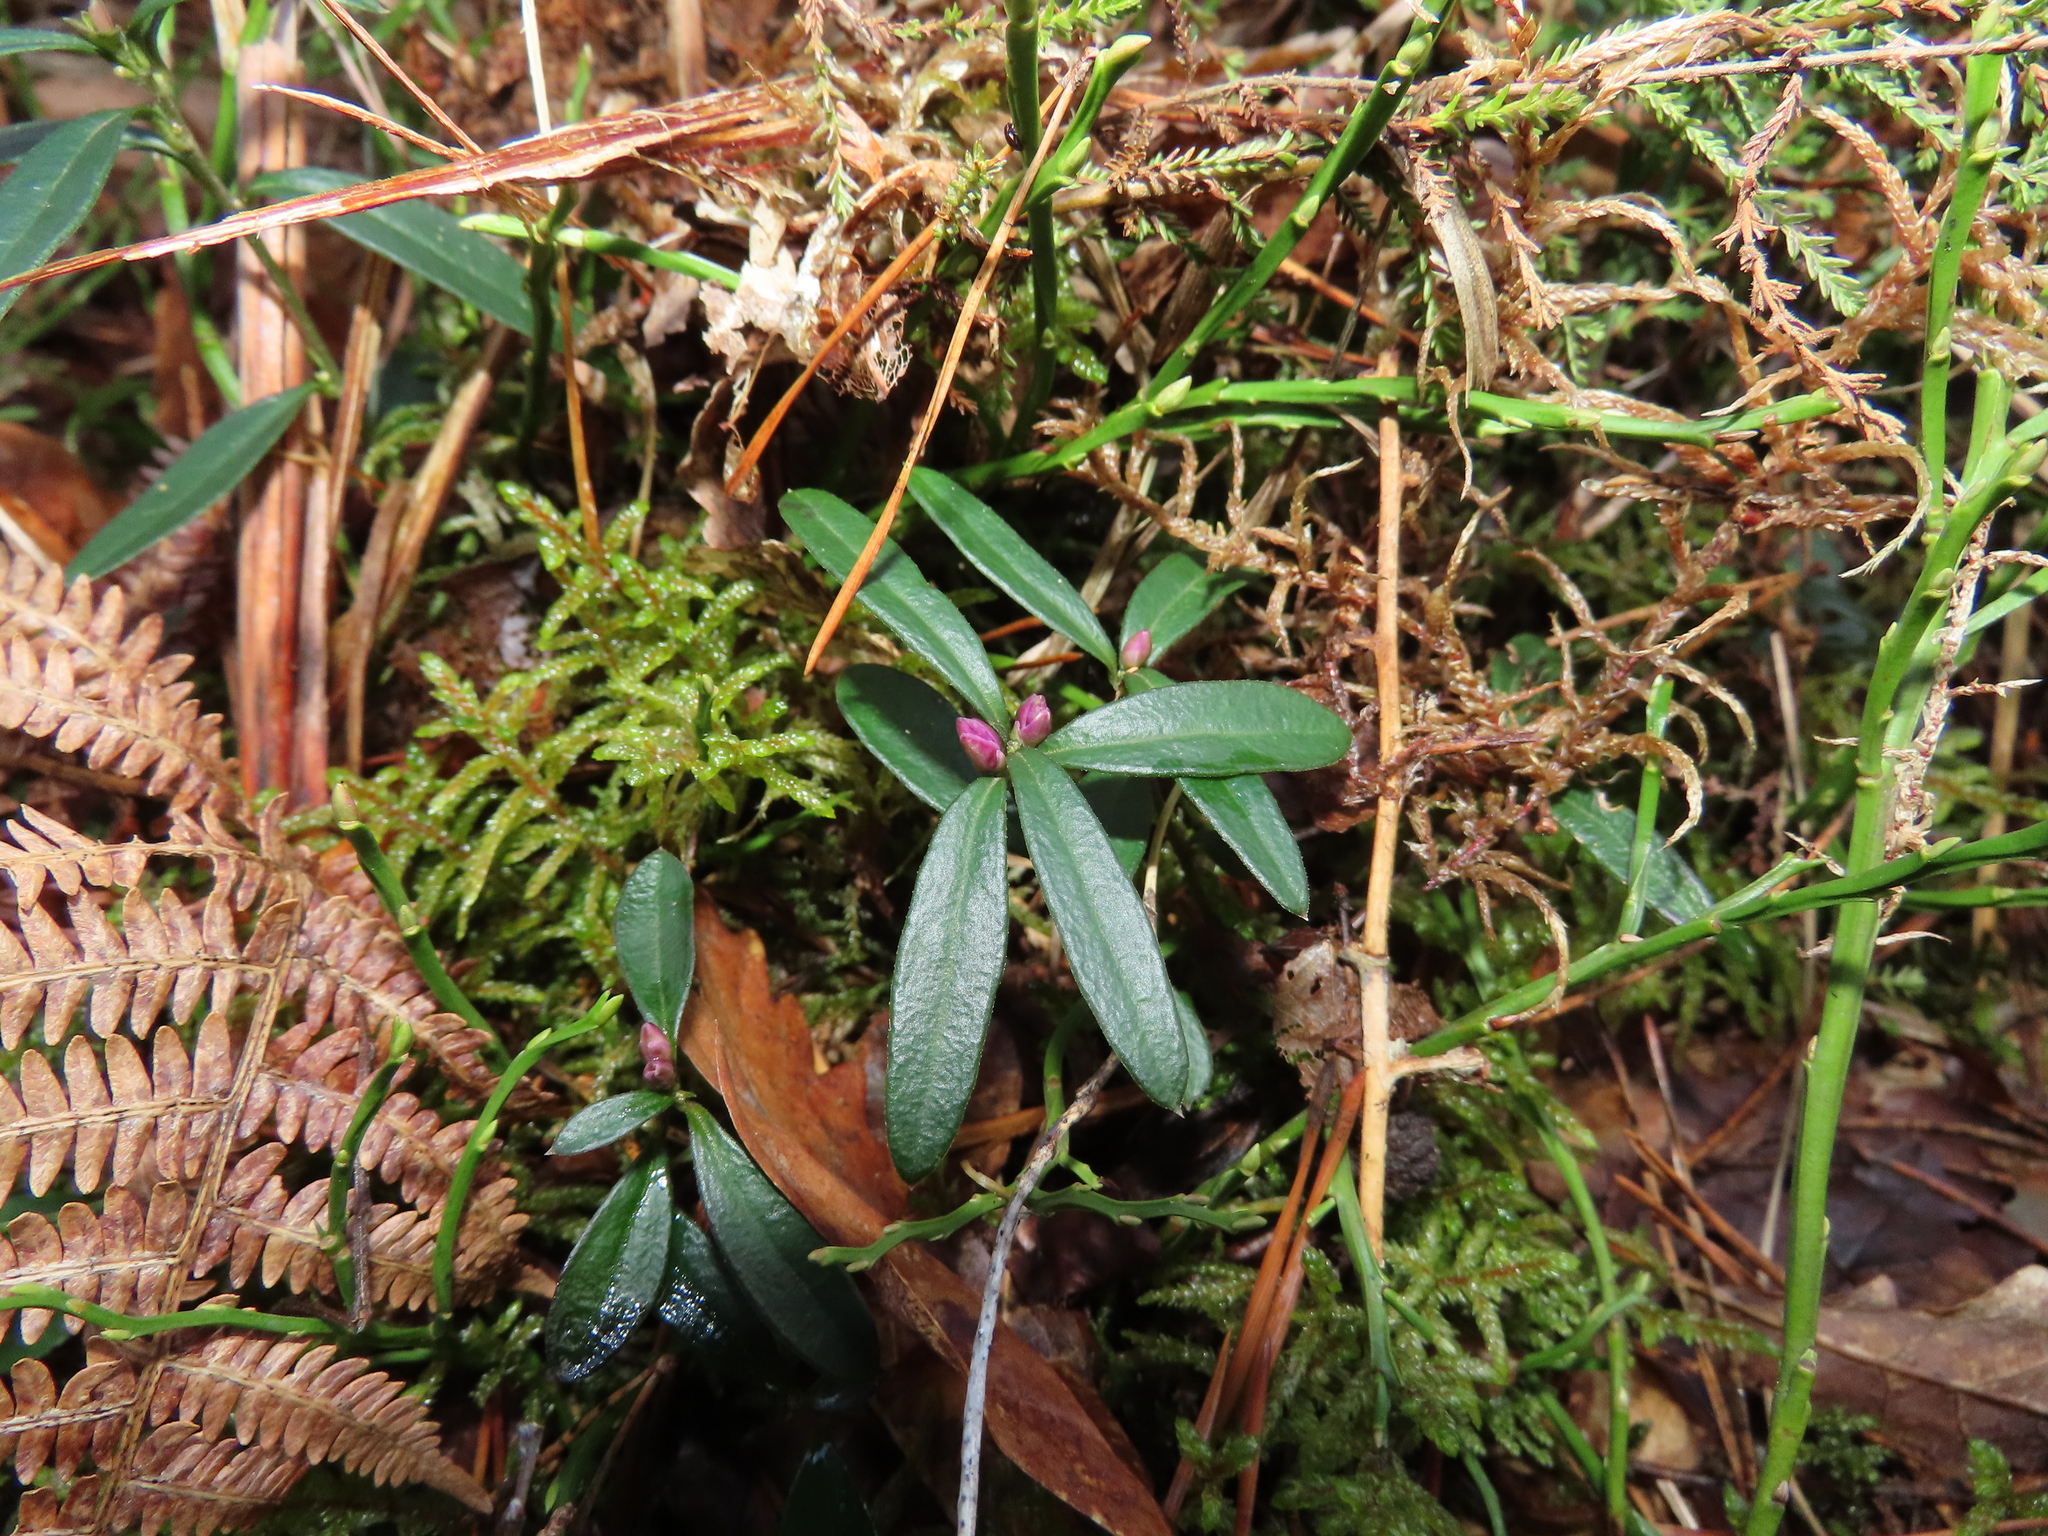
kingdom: Plantae
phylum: Tracheophyta
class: Magnoliopsida
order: Fabales
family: Polygalaceae
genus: Polygaloides
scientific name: Polygaloides chamaebuxus
